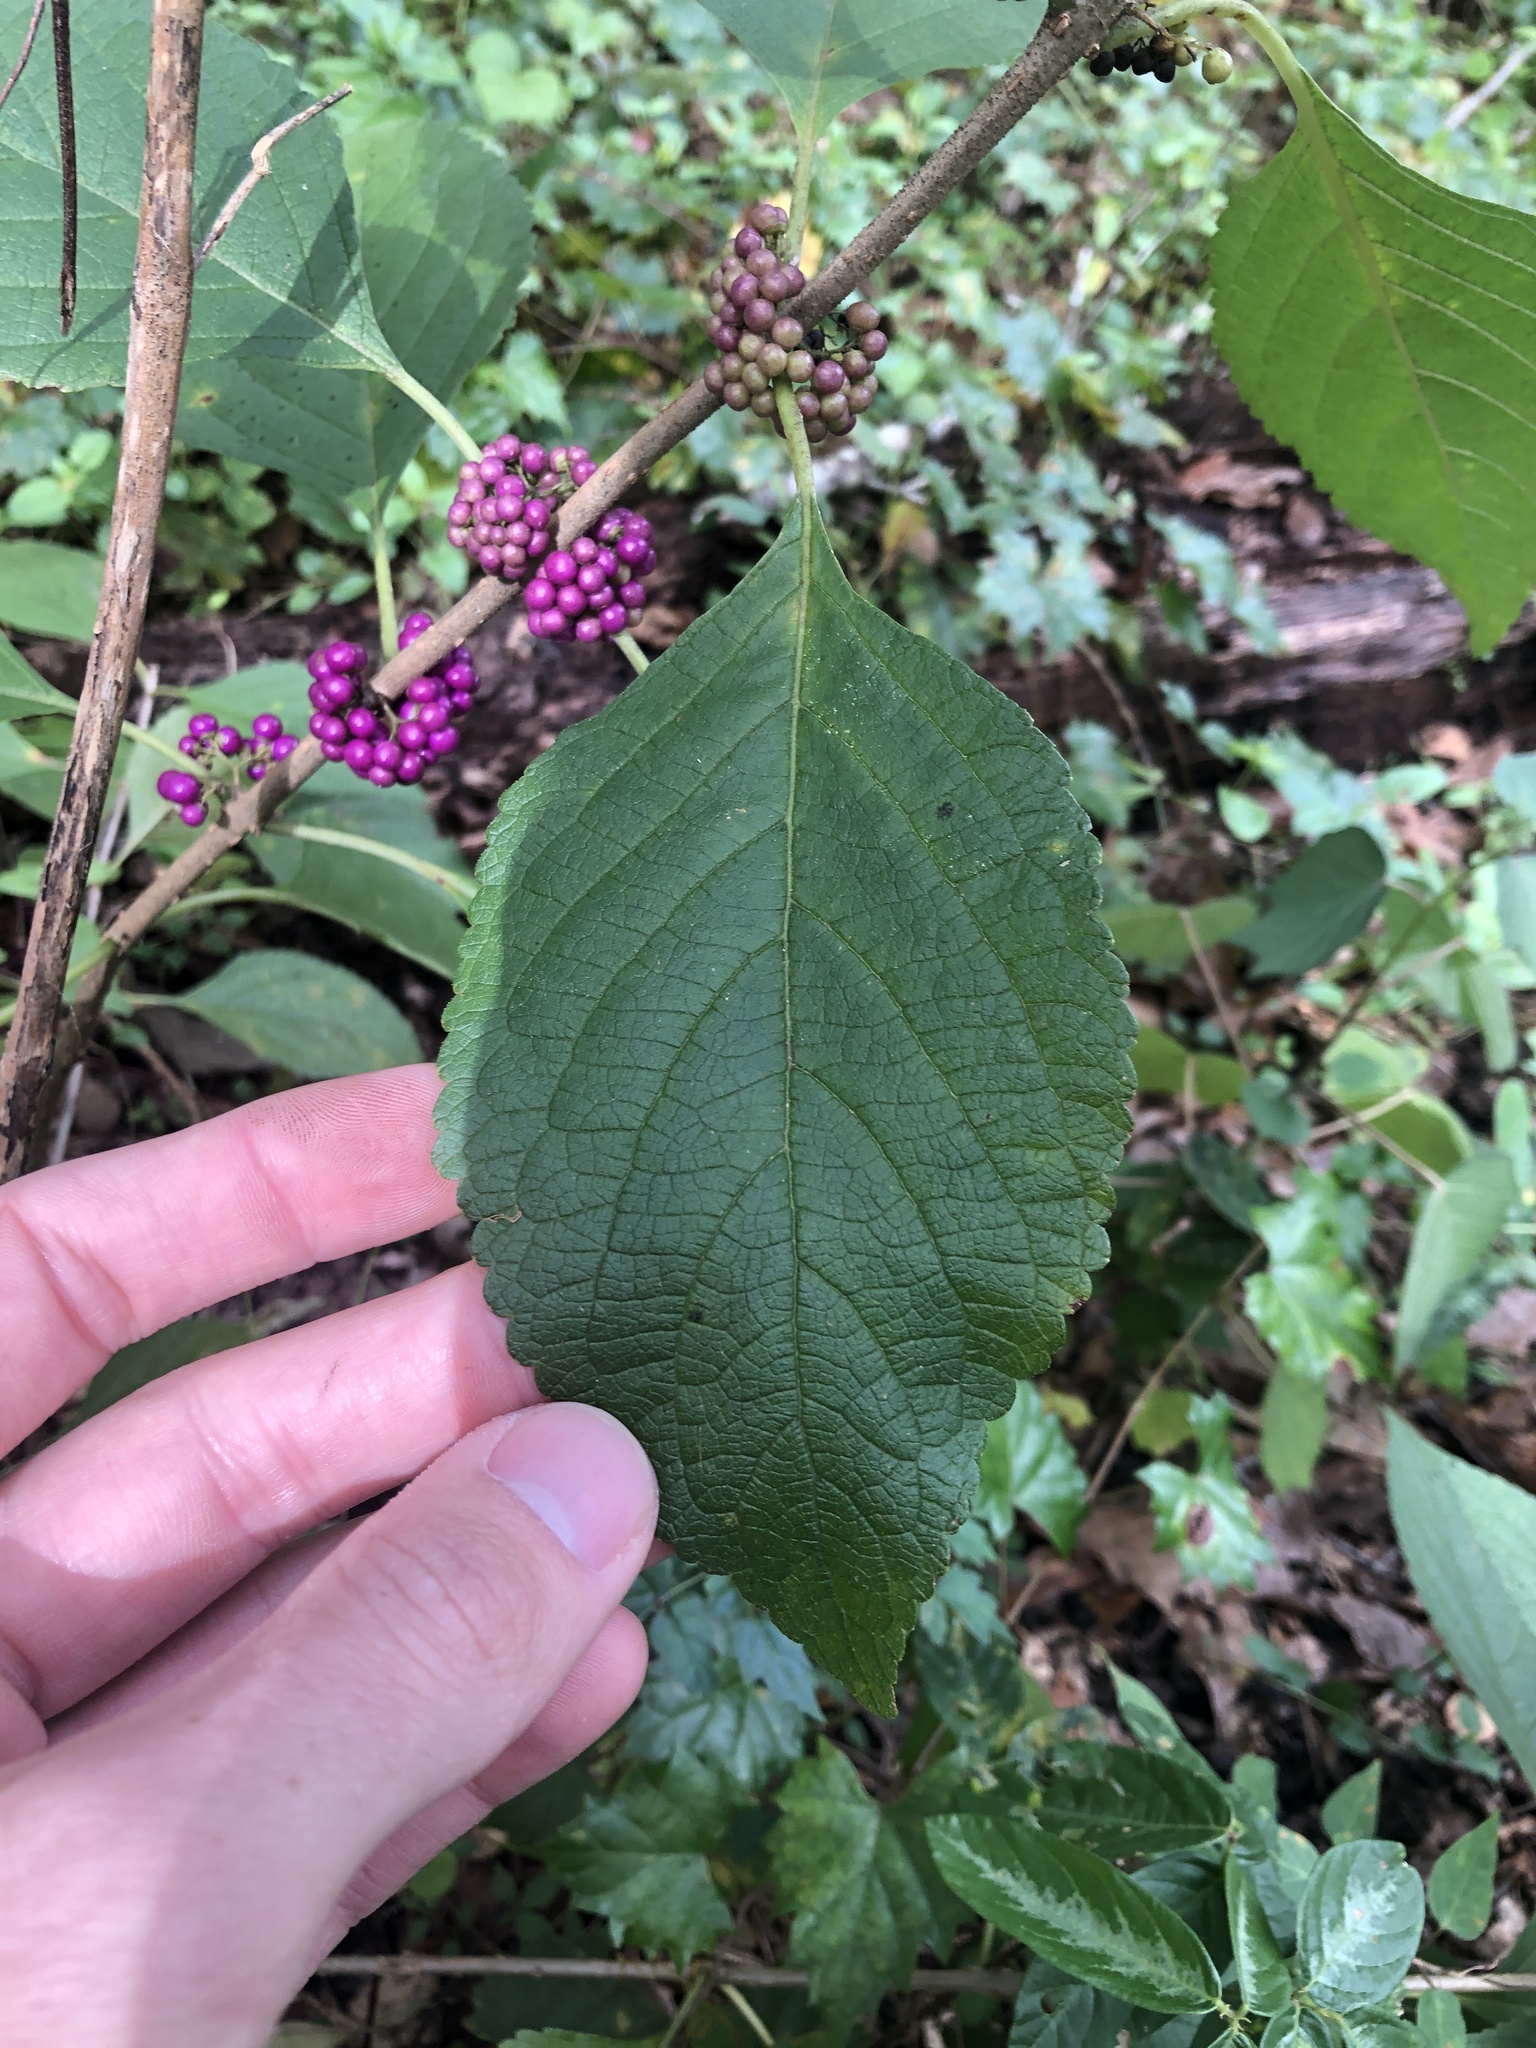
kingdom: Plantae
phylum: Tracheophyta
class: Magnoliopsida
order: Lamiales
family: Lamiaceae
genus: Callicarpa
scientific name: Callicarpa americana
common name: American beautyberry
